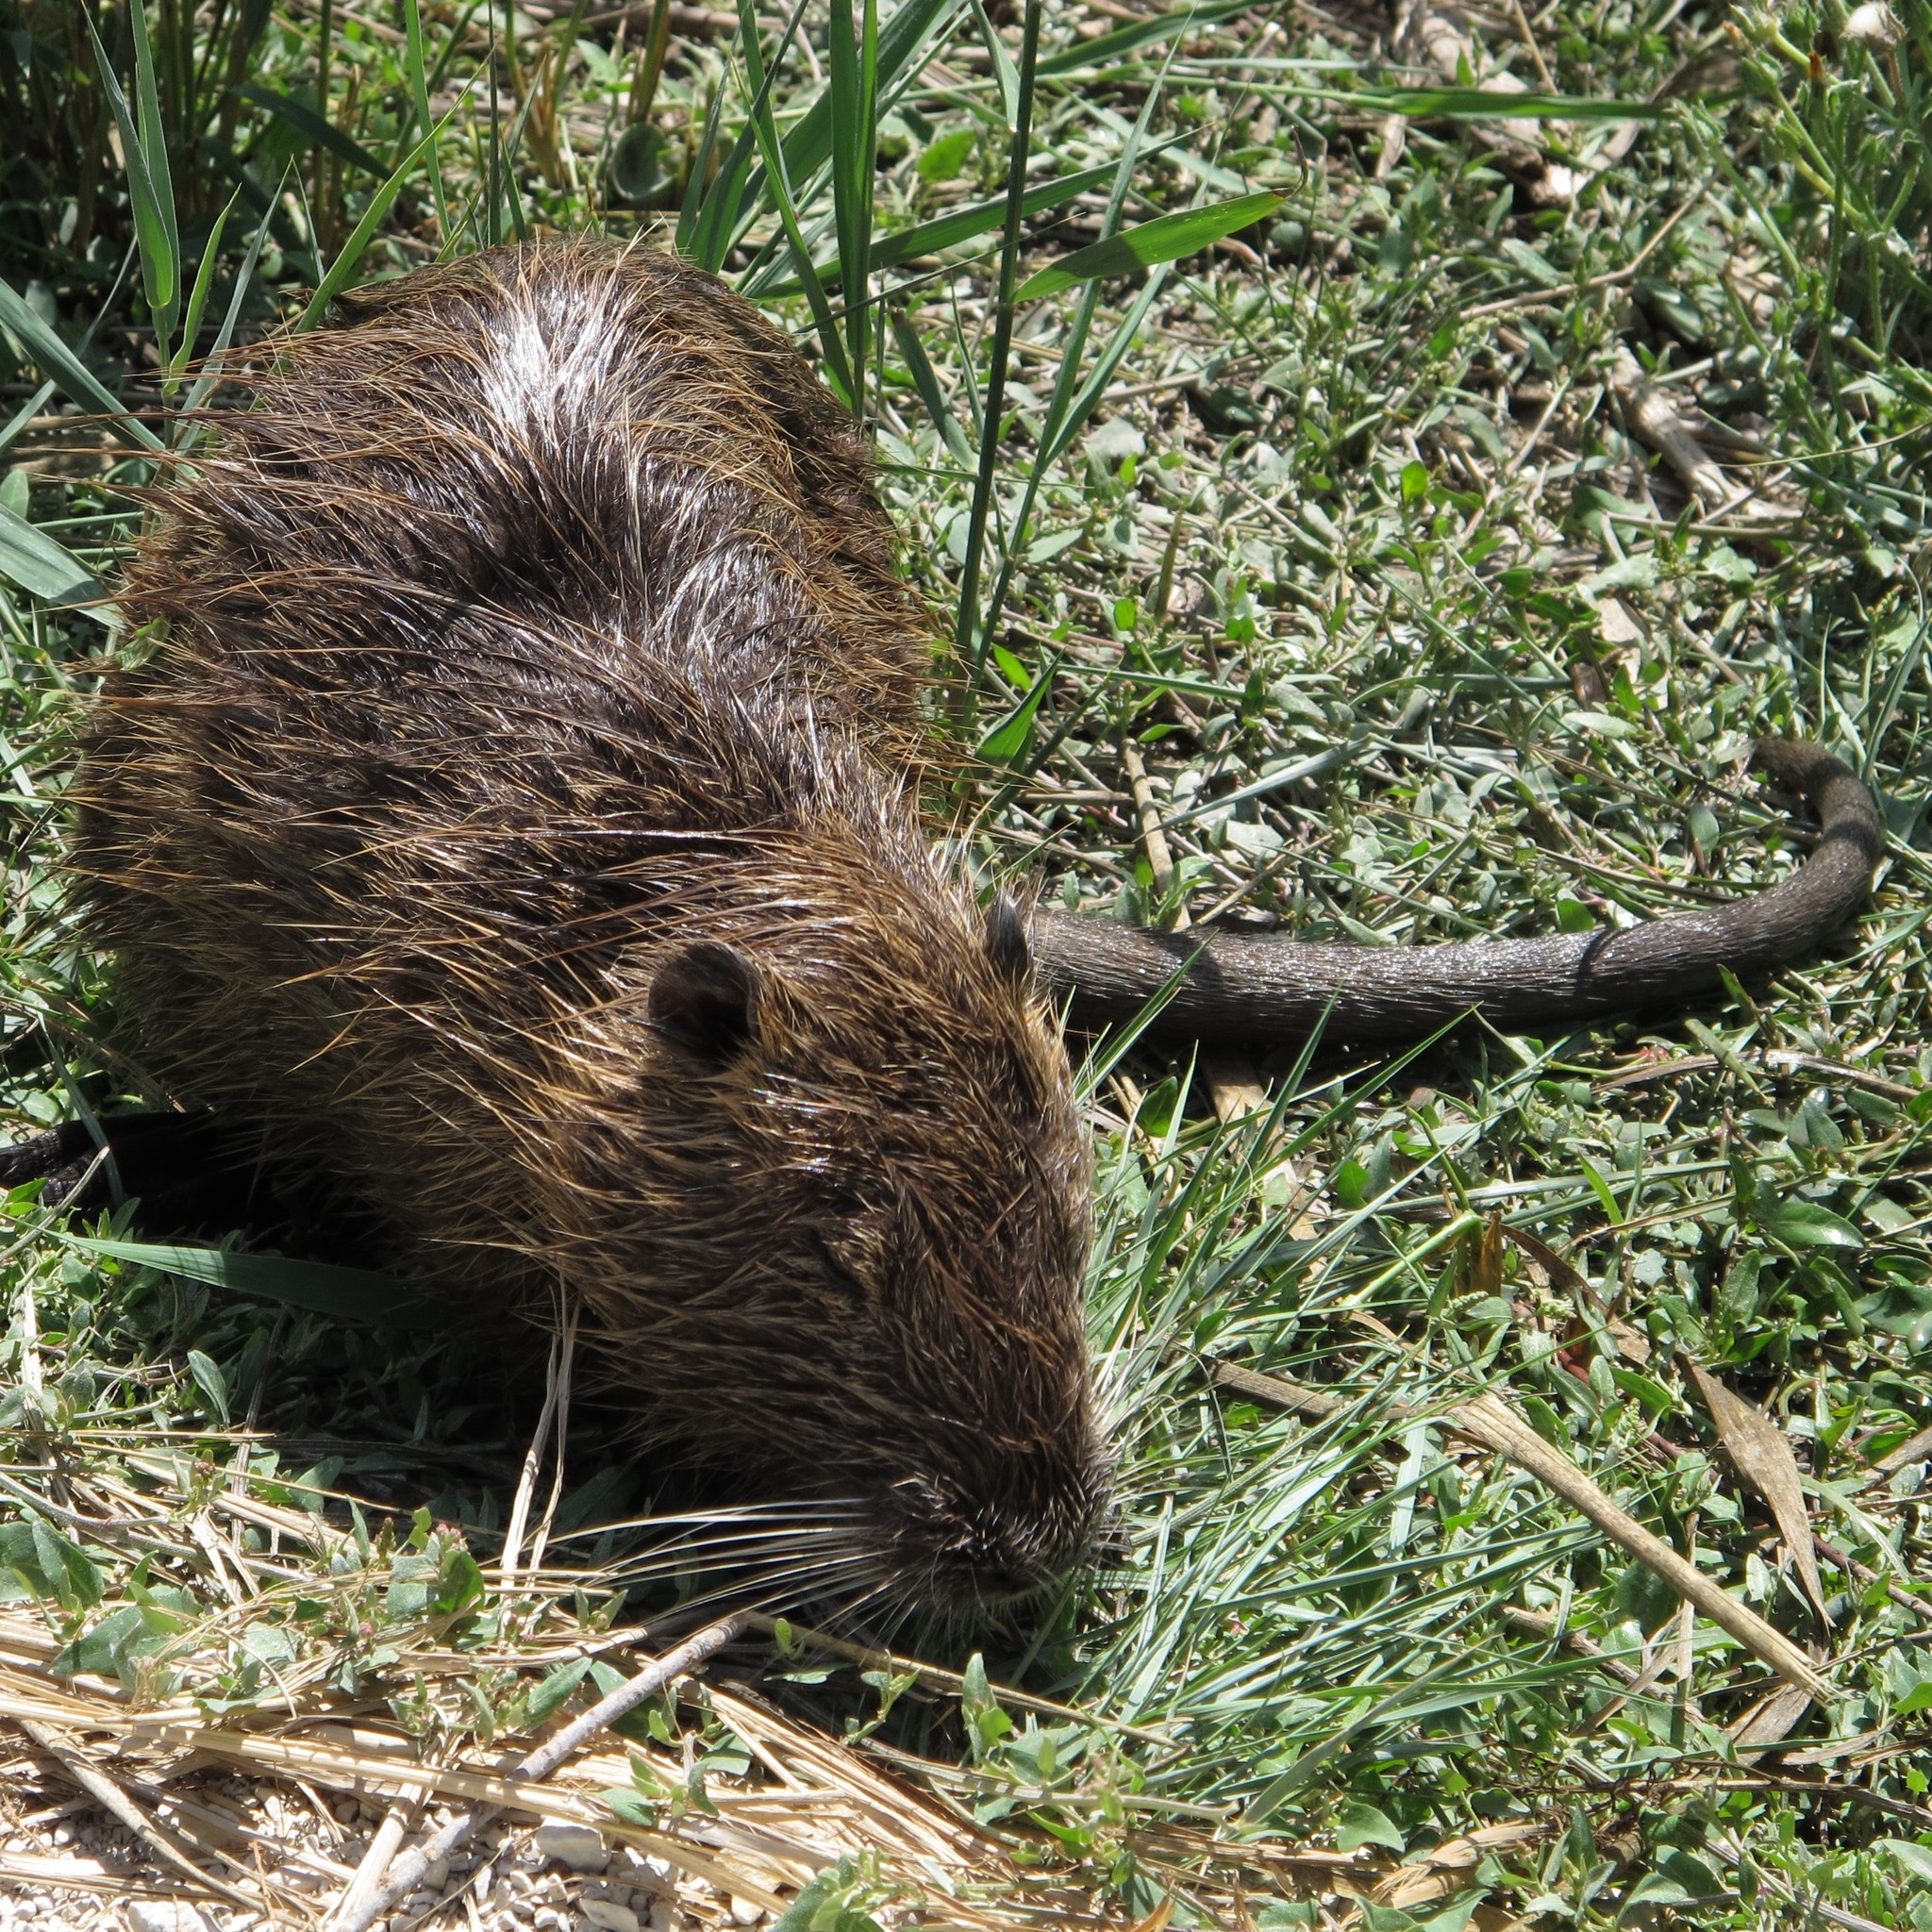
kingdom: Animalia
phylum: Chordata
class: Mammalia
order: Rodentia
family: Myocastoridae
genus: Myocastor
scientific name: Myocastor coypus
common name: Coypu
